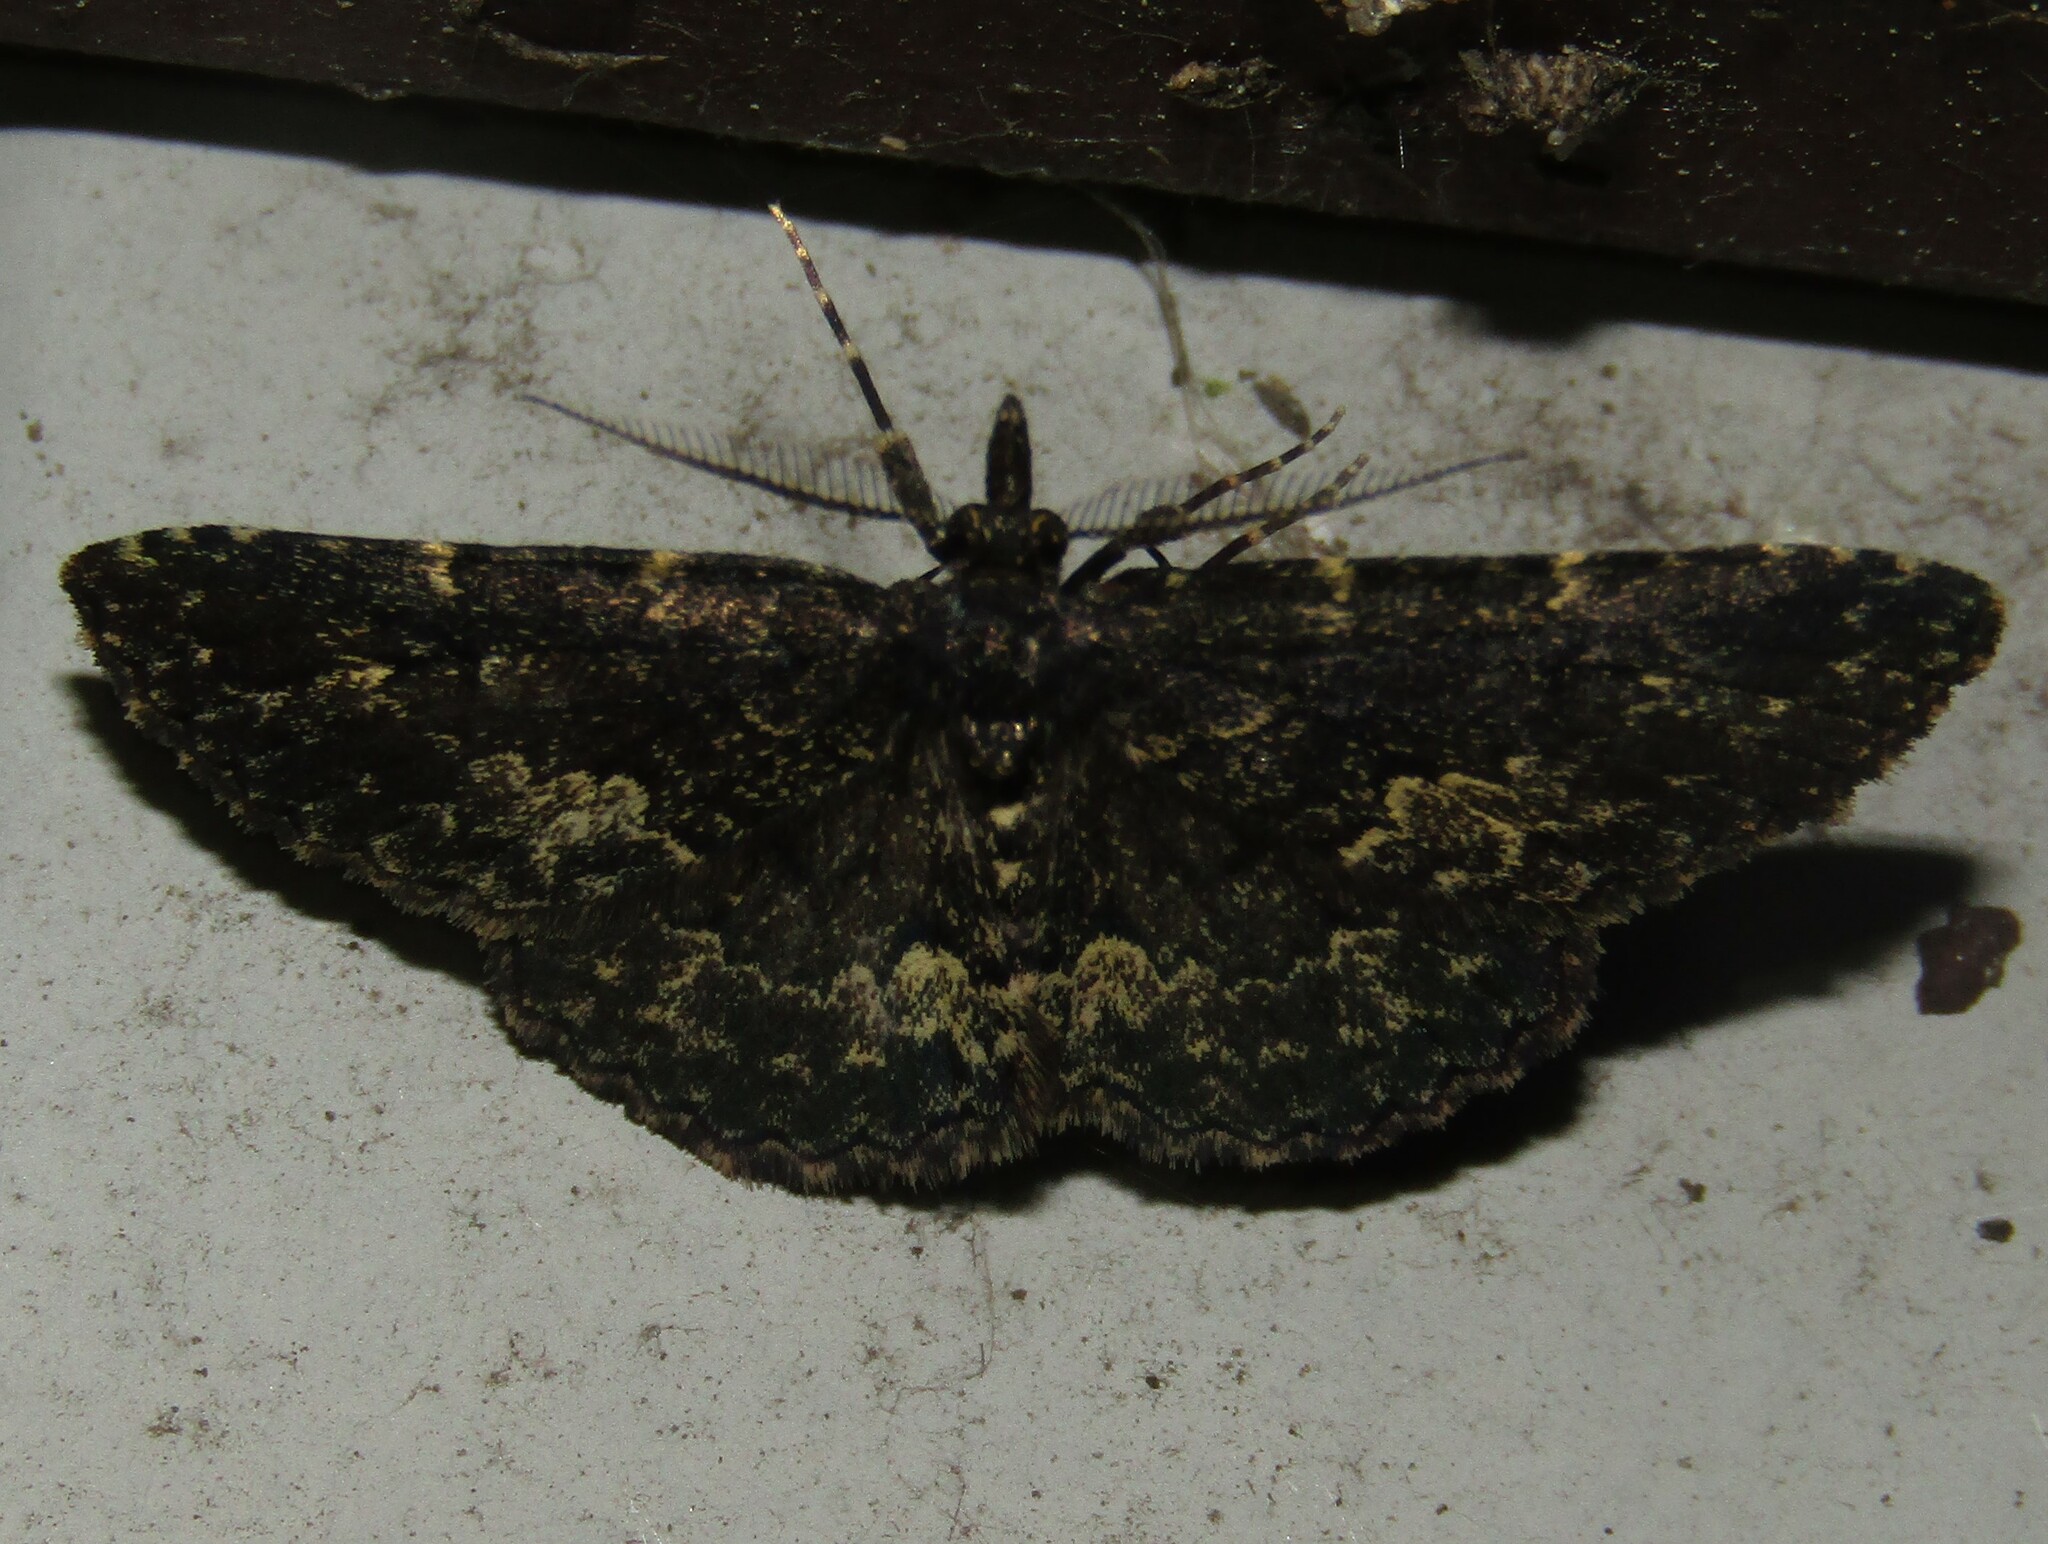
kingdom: Animalia
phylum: Arthropoda
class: Insecta
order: Lepidoptera
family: Erebidae
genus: Parascotia
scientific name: Parascotia fuliginaria
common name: Waved black
